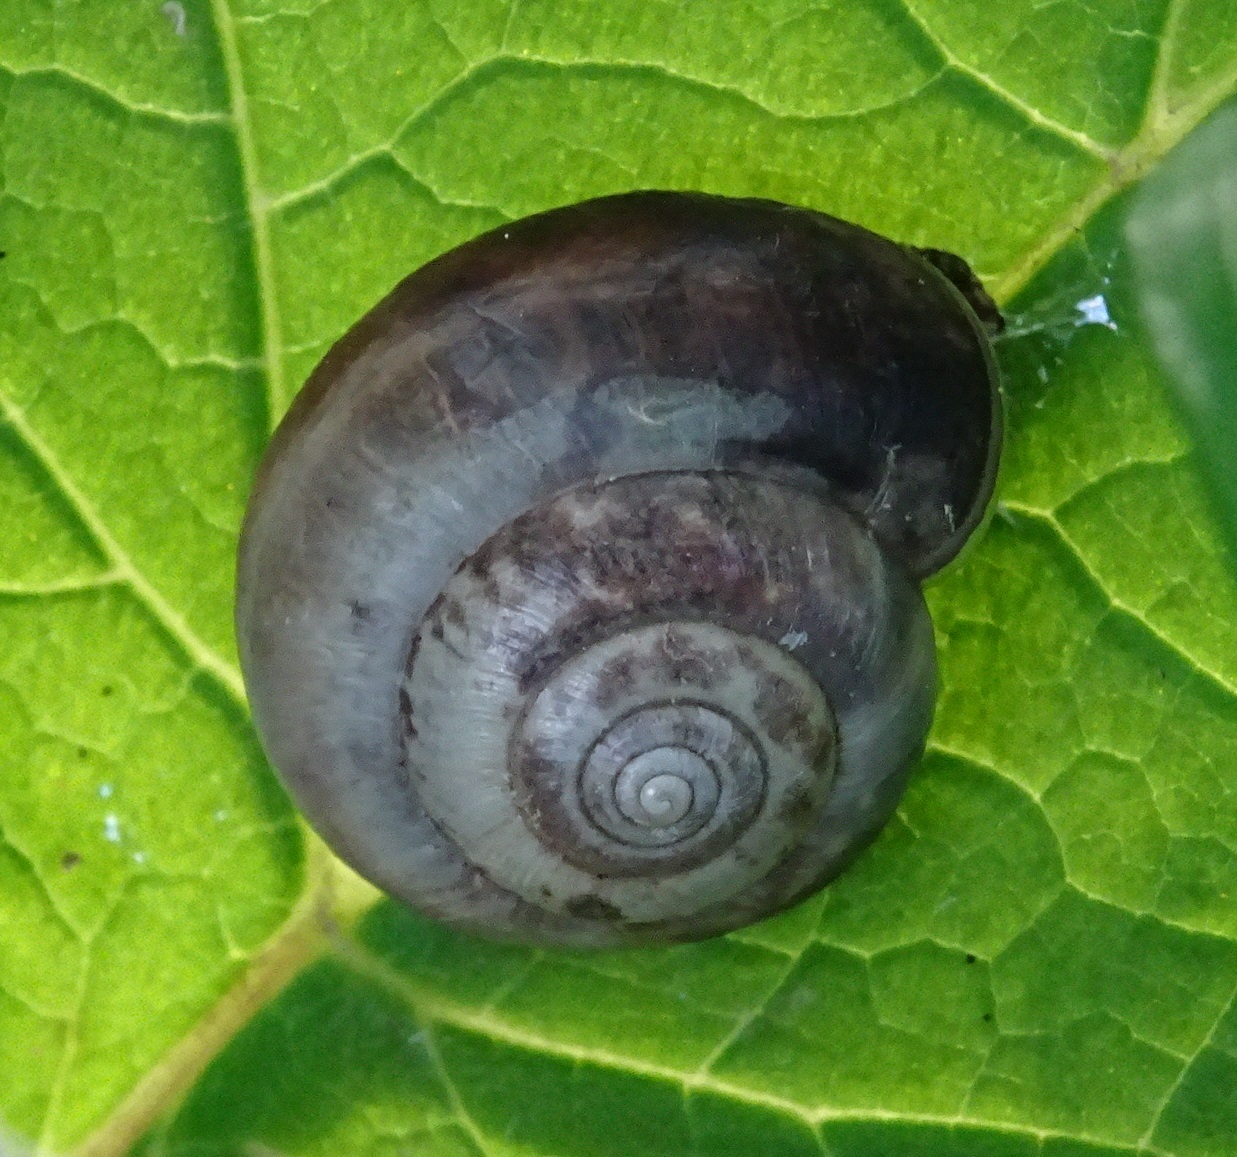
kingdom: Animalia
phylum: Mollusca
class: Gastropoda
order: Stylommatophora
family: Hygromiidae
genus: Monacha
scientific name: Monacha cantiana
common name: Kentish snail
